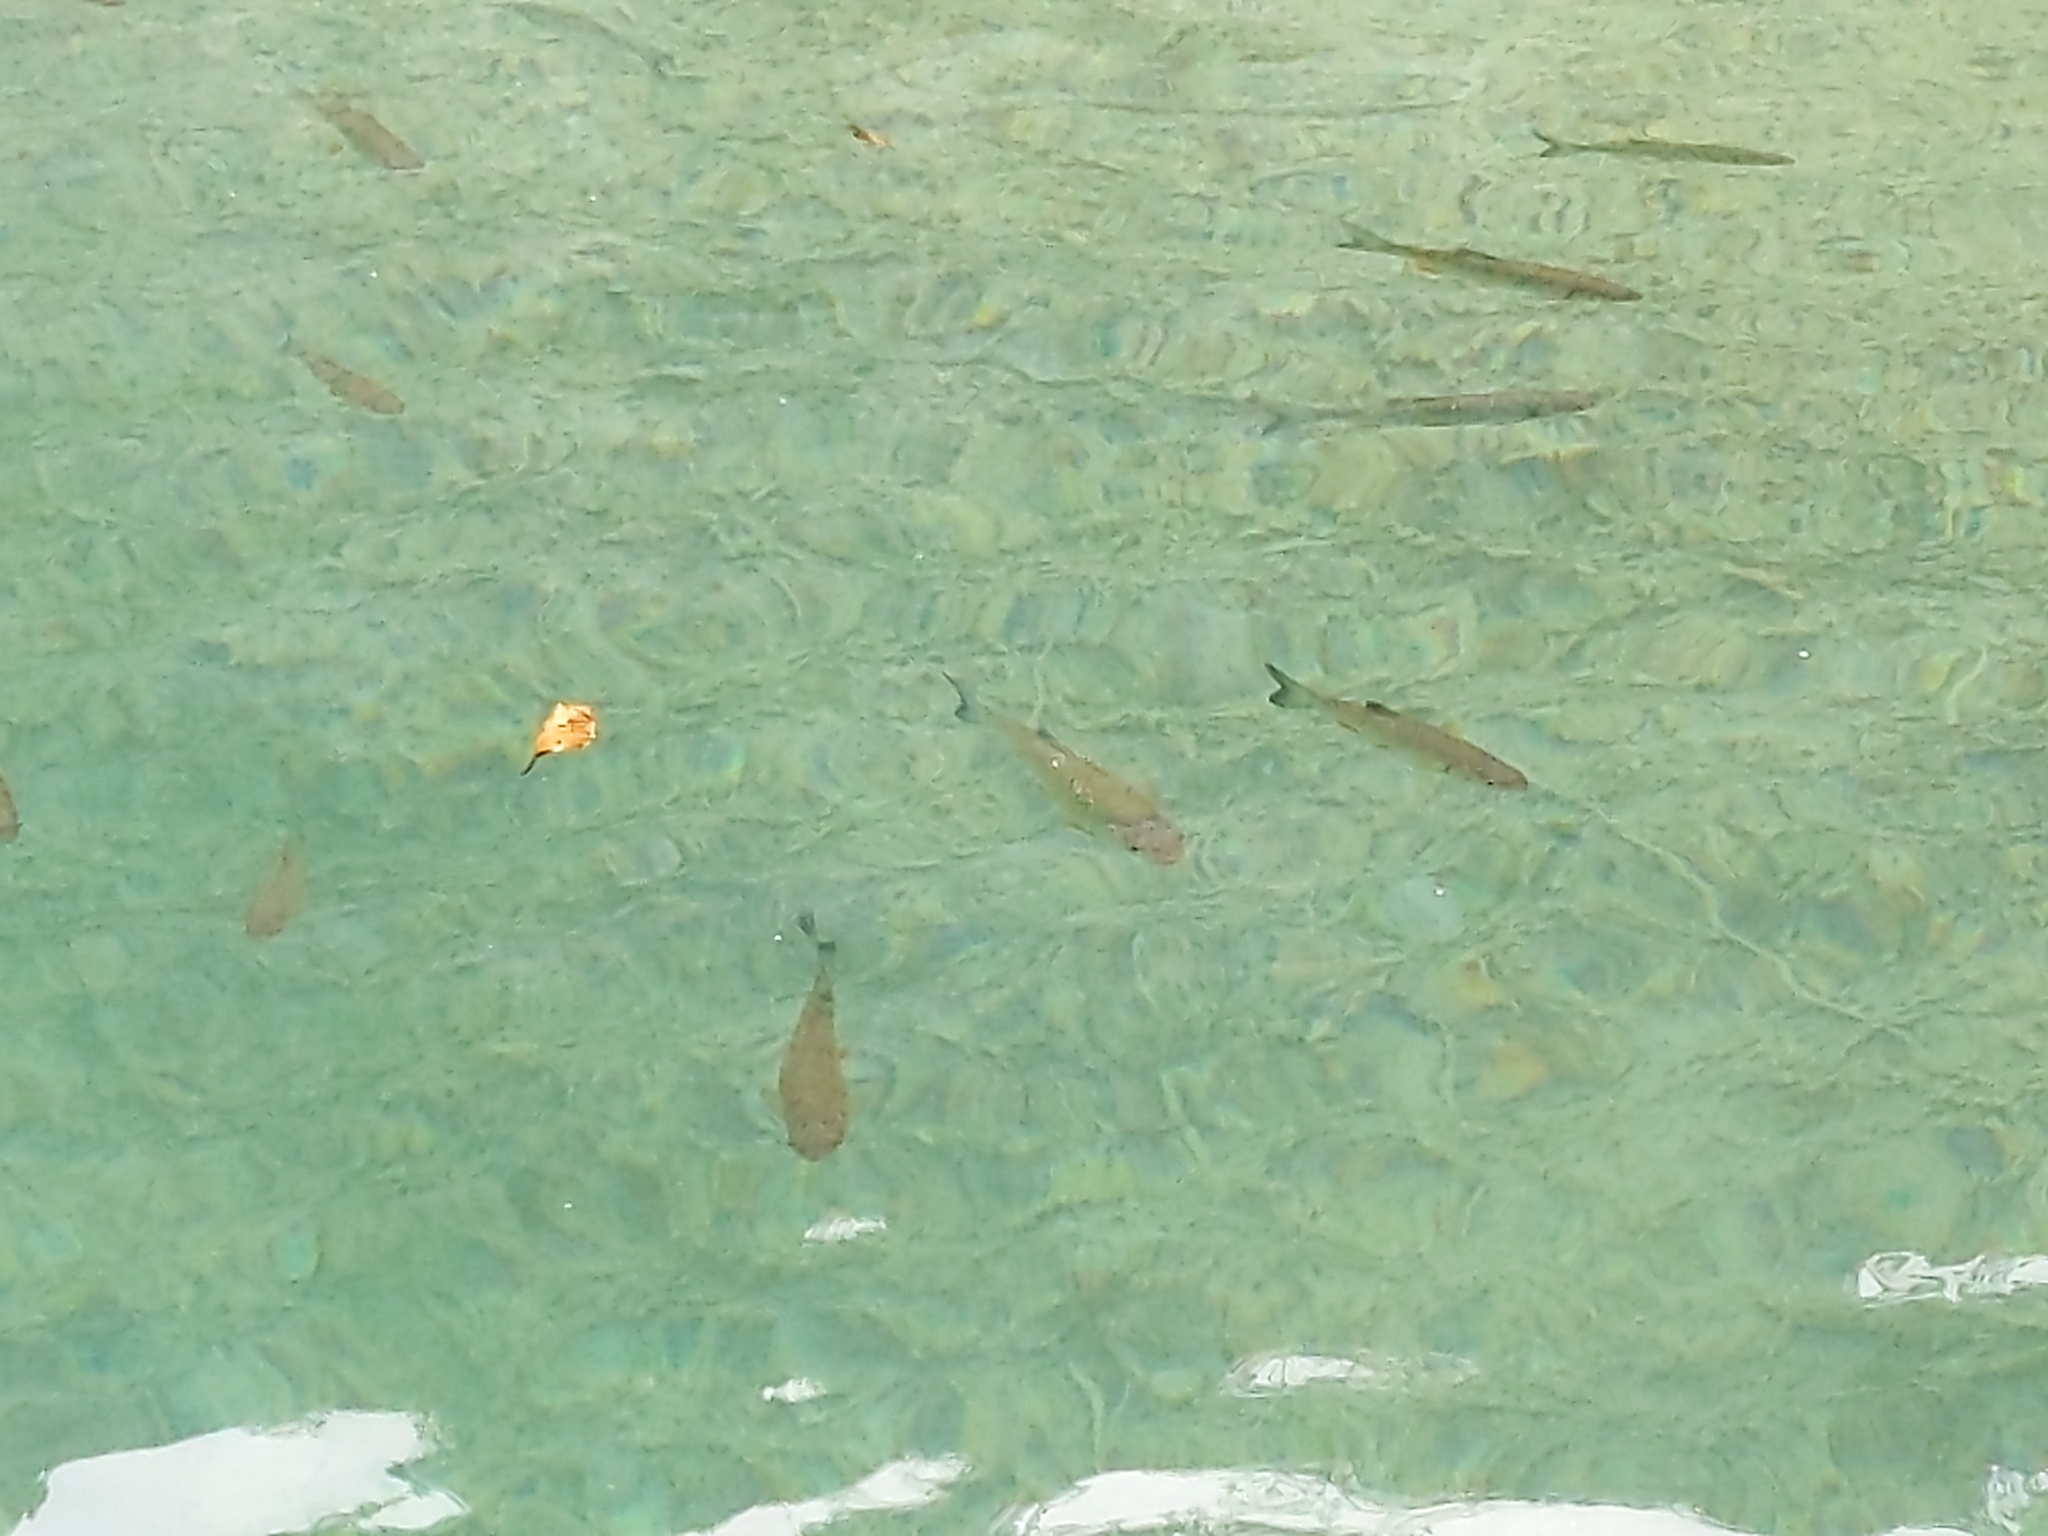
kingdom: Animalia
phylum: Chordata
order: Cypriniformes
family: Cyprinidae
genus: Squalius
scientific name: Squalius cephalus
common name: Chub
